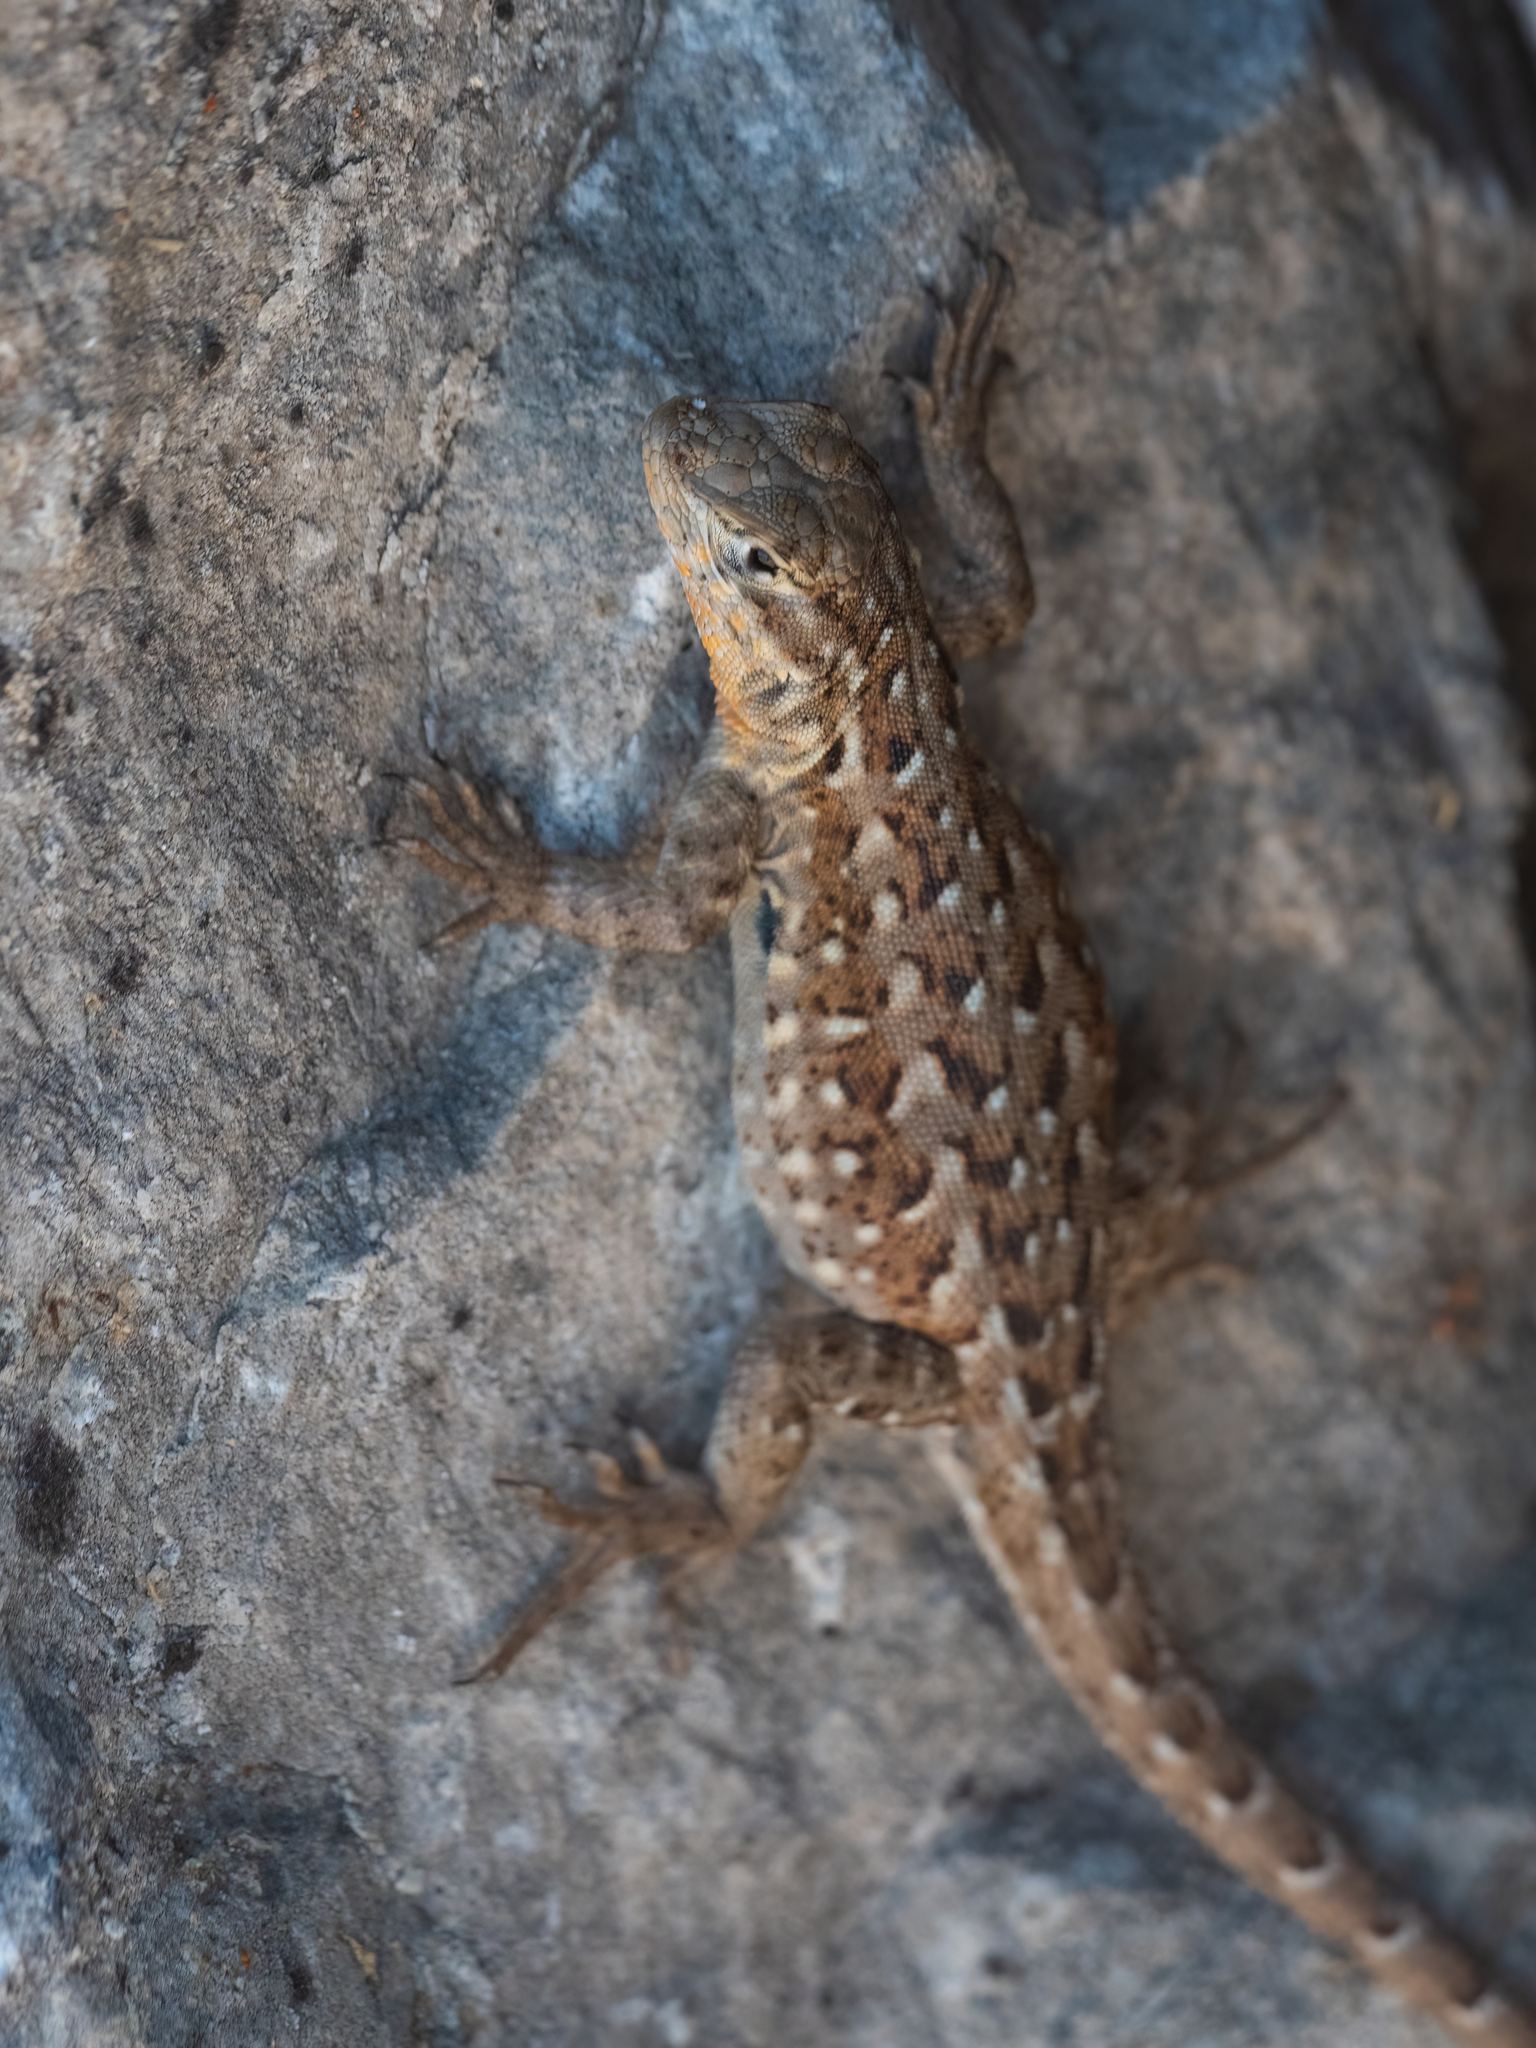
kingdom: Animalia
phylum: Chordata
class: Squamata
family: Phrynosomatidae
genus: Uta
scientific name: Uta stansburiana
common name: Side-blotched lizard
